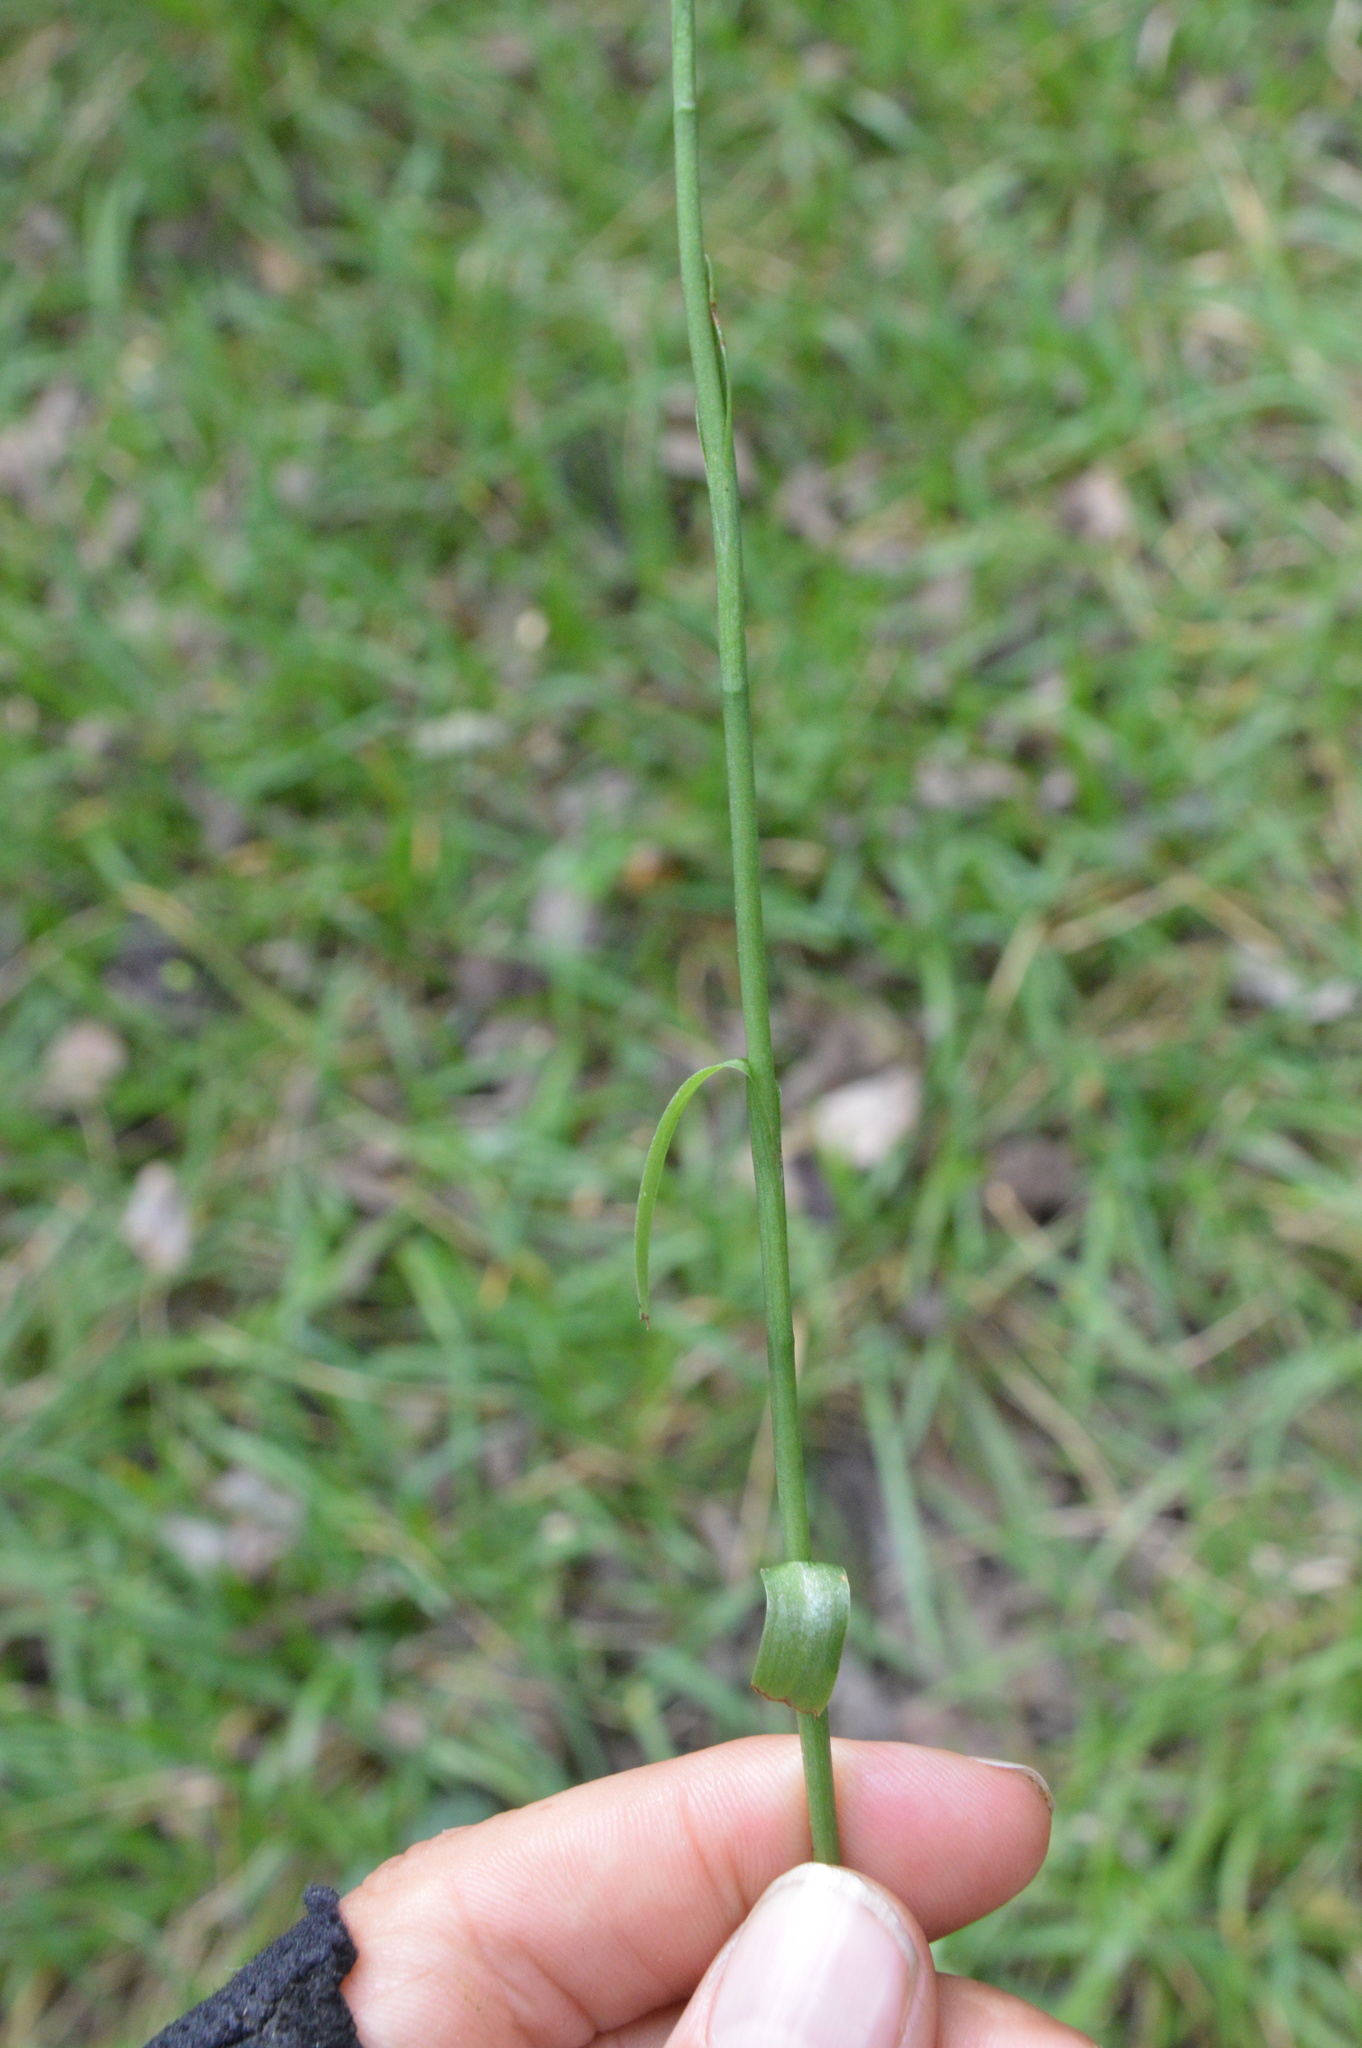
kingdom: Plantae
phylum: Tracheophyta
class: Liliopsida
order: Asparagales
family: Orchidaceae
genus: Spiranthes
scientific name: Spiranthes ovalis
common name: October ladies'-tresses
